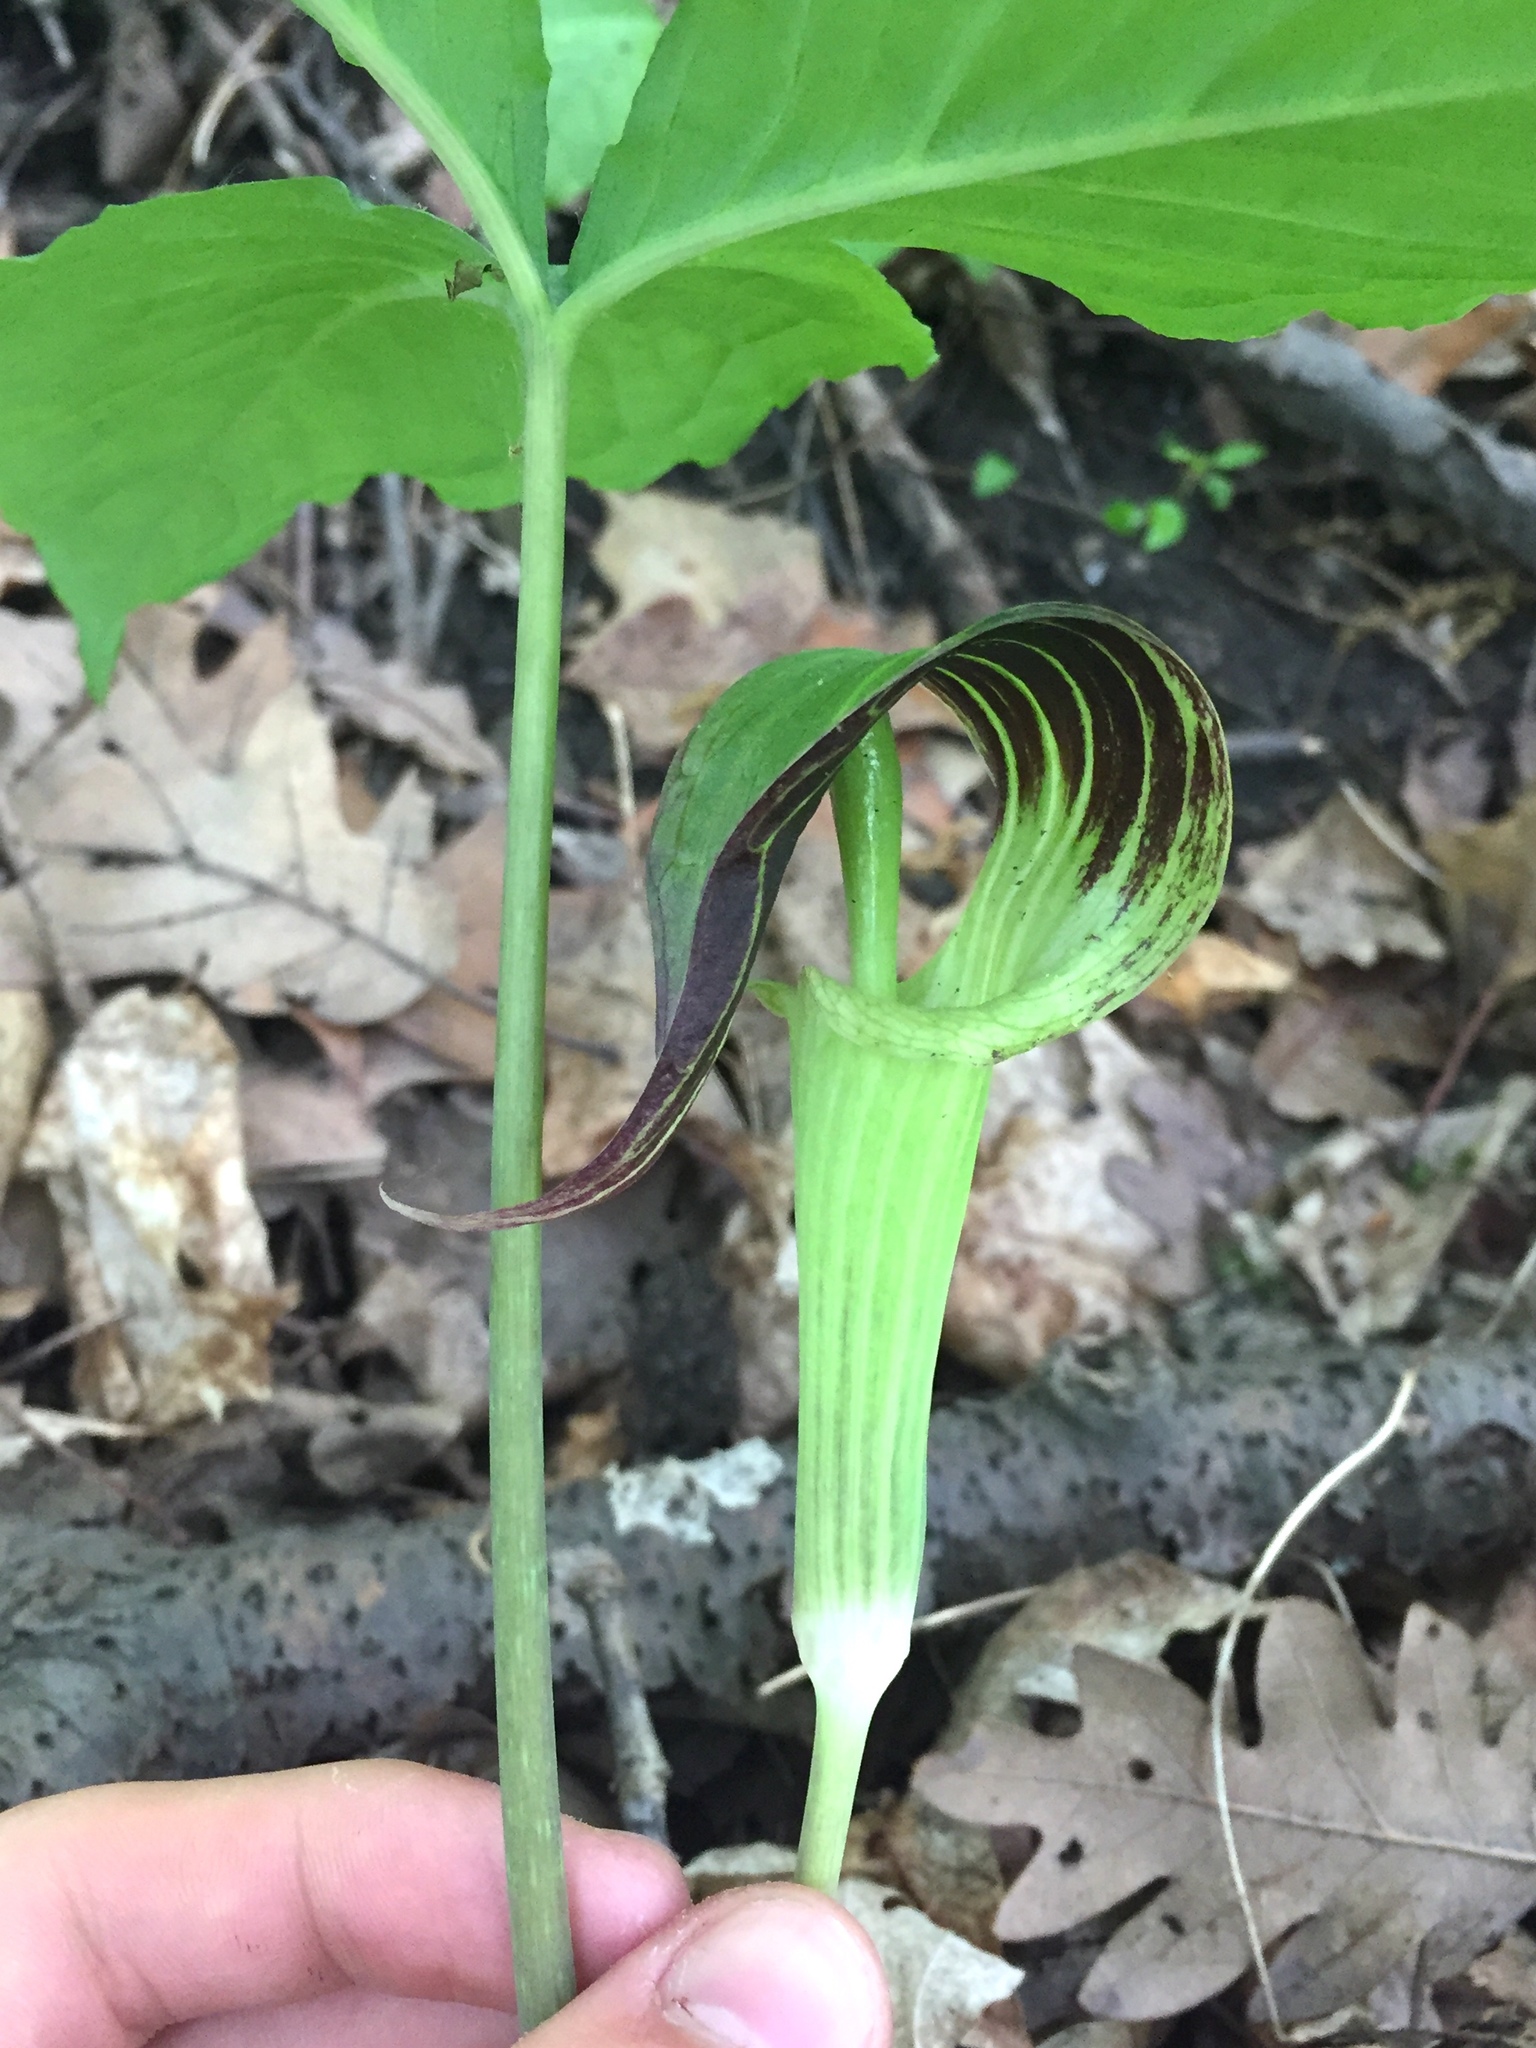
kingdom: Plantae
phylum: Tracheophyta
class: Liliopsida
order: Alismatales
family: Araceae
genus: Arisaema
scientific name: Arisaema triphyllum
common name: Jack-in-the-pulpit
